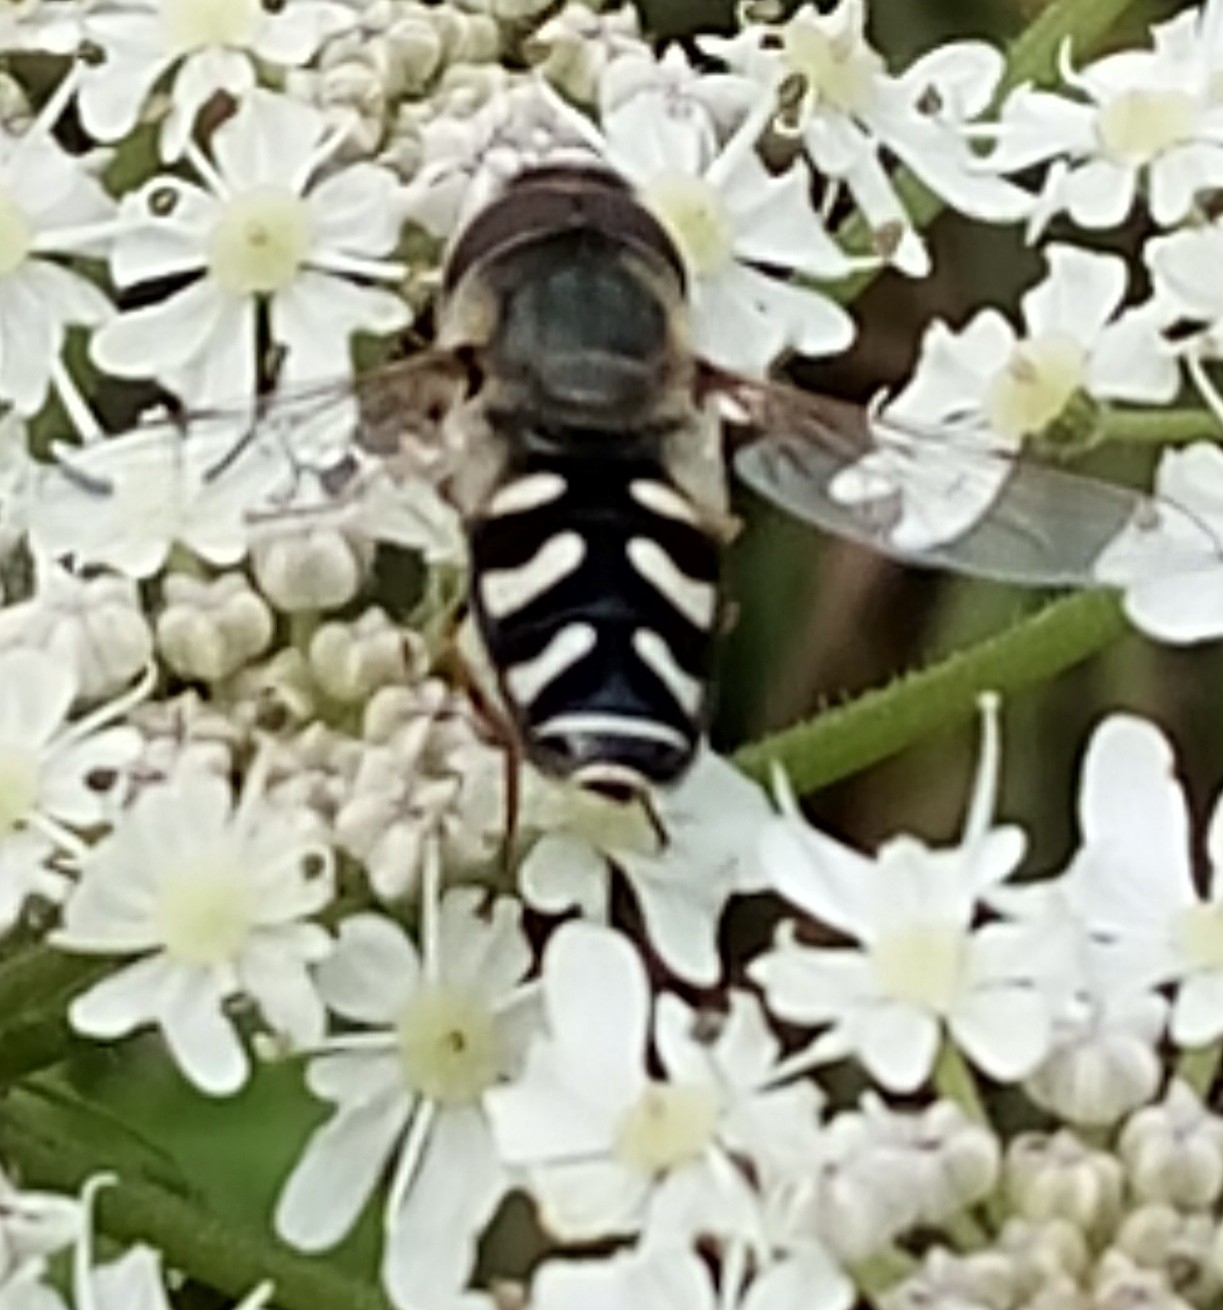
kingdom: Animalia
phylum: Arthropoda
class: Insecta
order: Diptera
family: Syrphidae
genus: Scaeva
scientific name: Scaeva pyrastri
